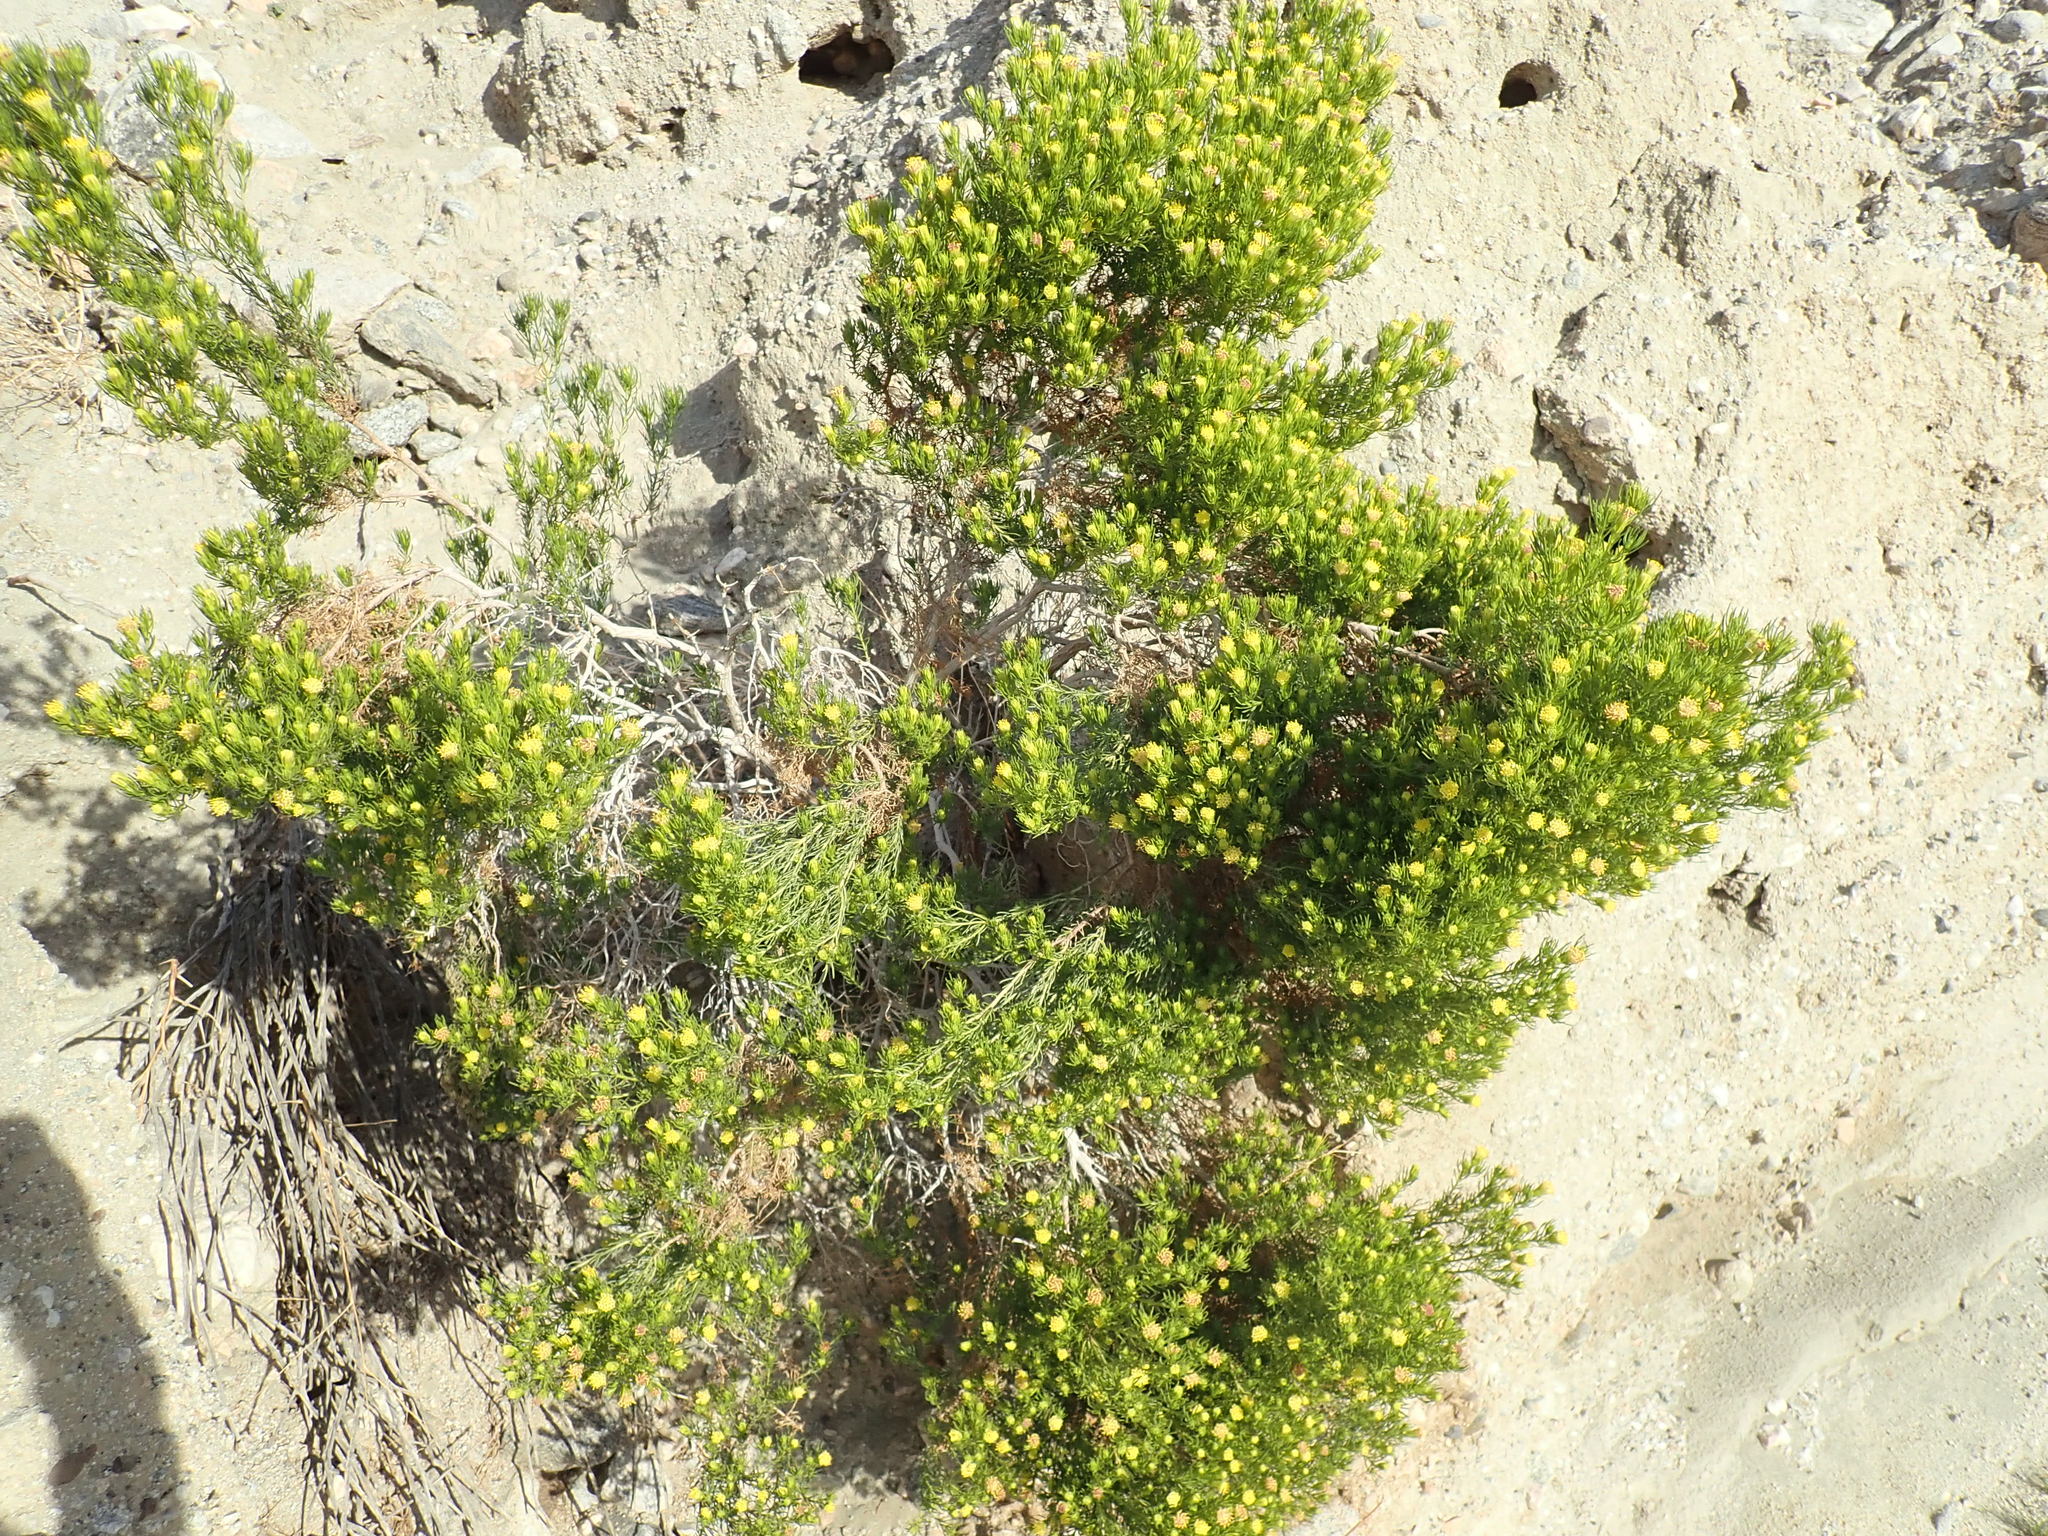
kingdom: Plantae
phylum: Tracheophyta
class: Magnoliopsida
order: Asterales
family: Asteraceae
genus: Peucephyllum
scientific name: Peucephyllum schottii
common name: Pygmy-cedar
